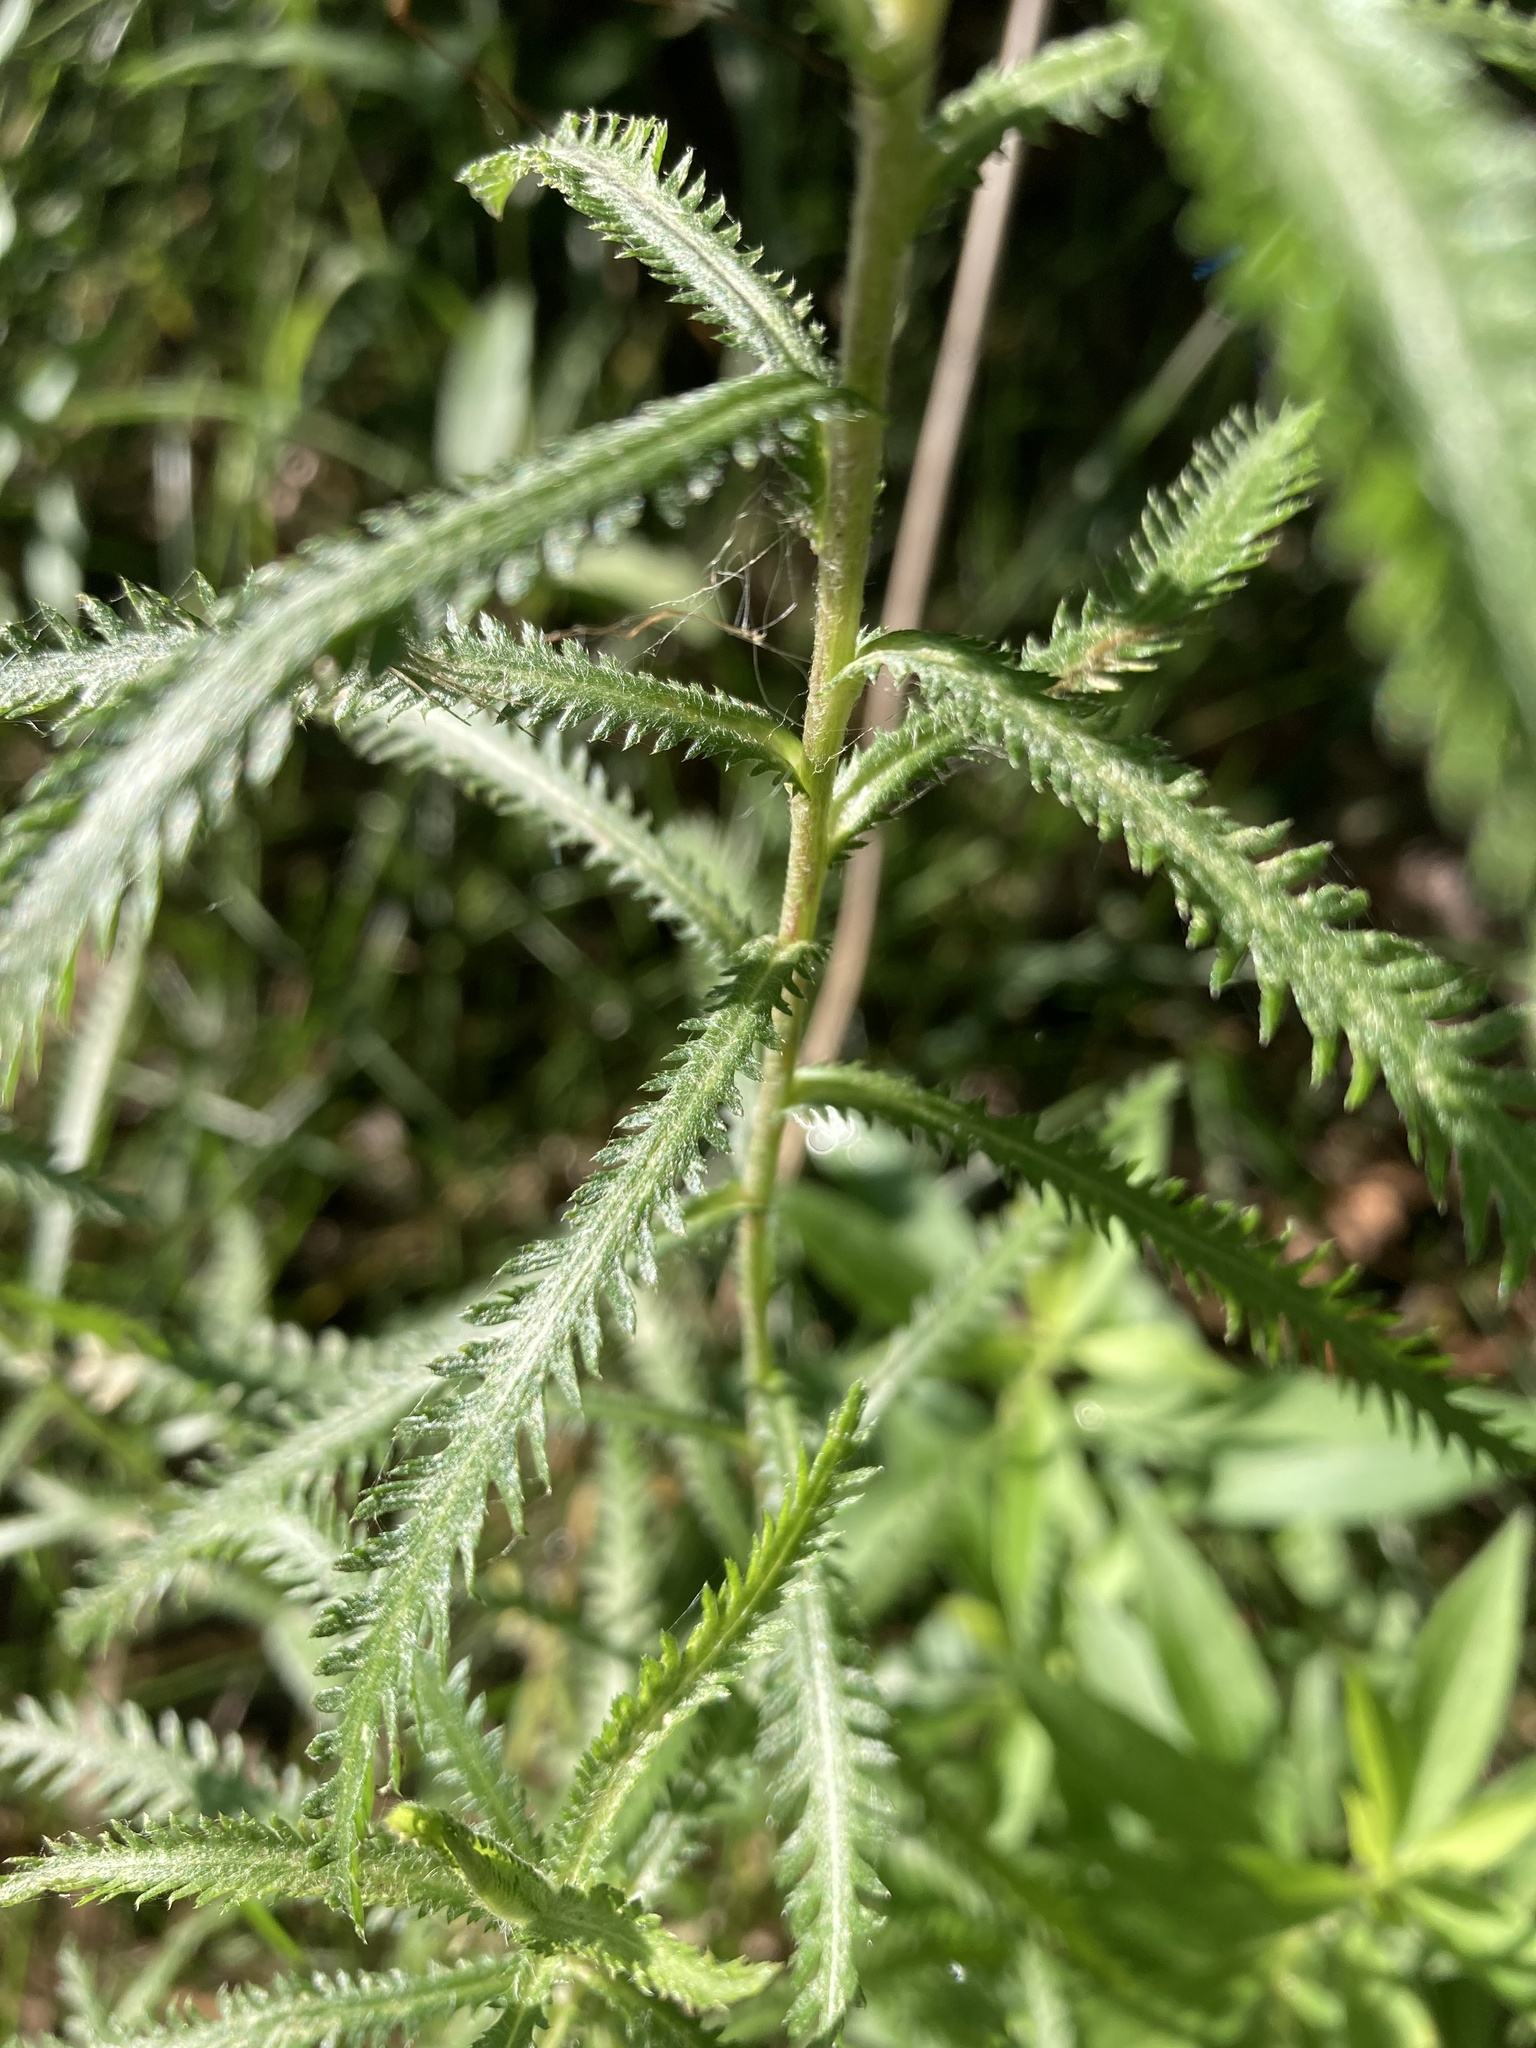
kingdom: Plantae
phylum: Tracheophyta
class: Magnoliopsida
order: Asterales
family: Asteraceae
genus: Achillea
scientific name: Achillea alpina
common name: Siberian yarrow
